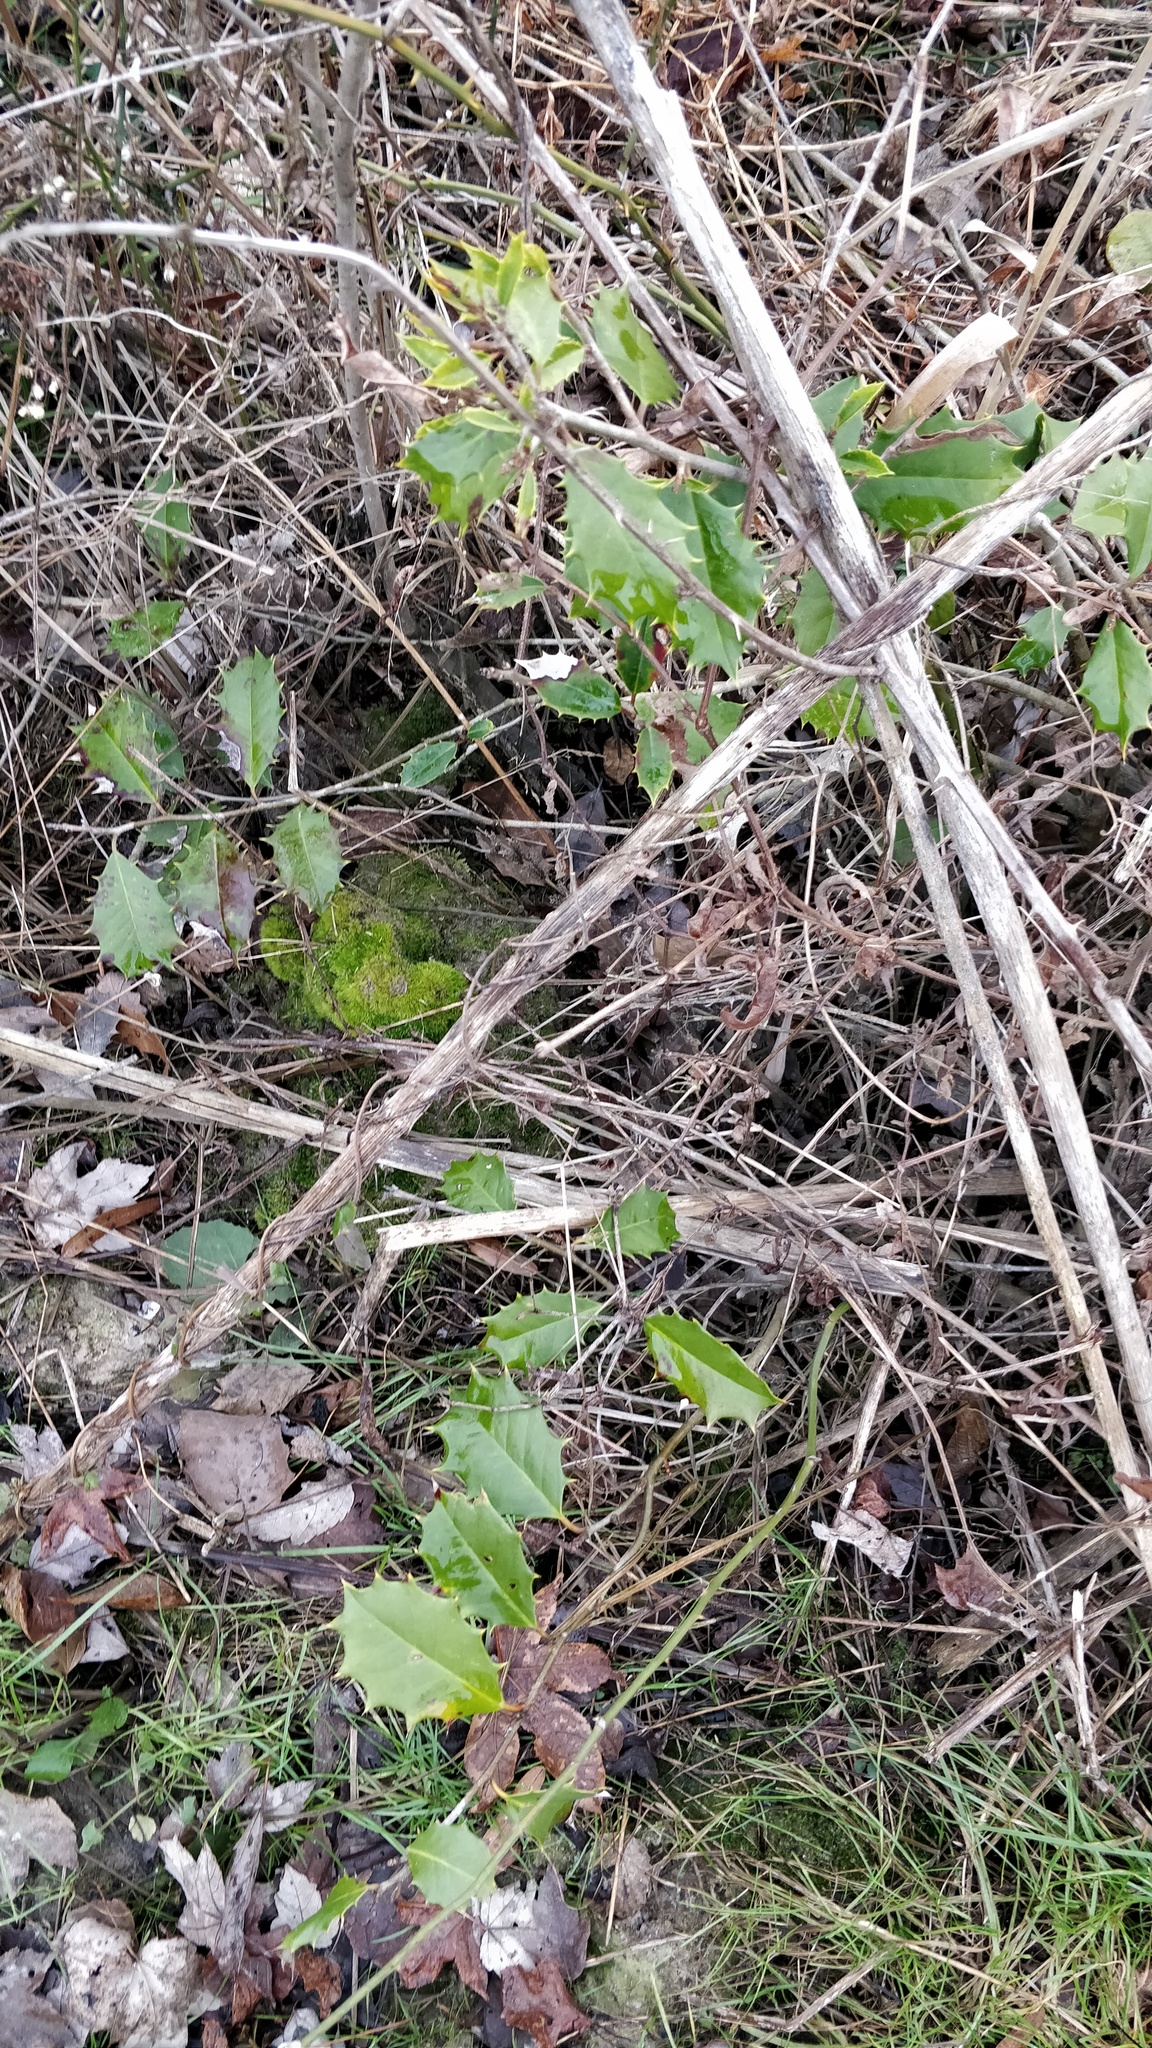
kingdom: Plantae
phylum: Tracheophyta
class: Magnoliopsida
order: Aquifoliales
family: Aquifoliaceae
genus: Ilex
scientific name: Ilex opaca
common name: American holly
